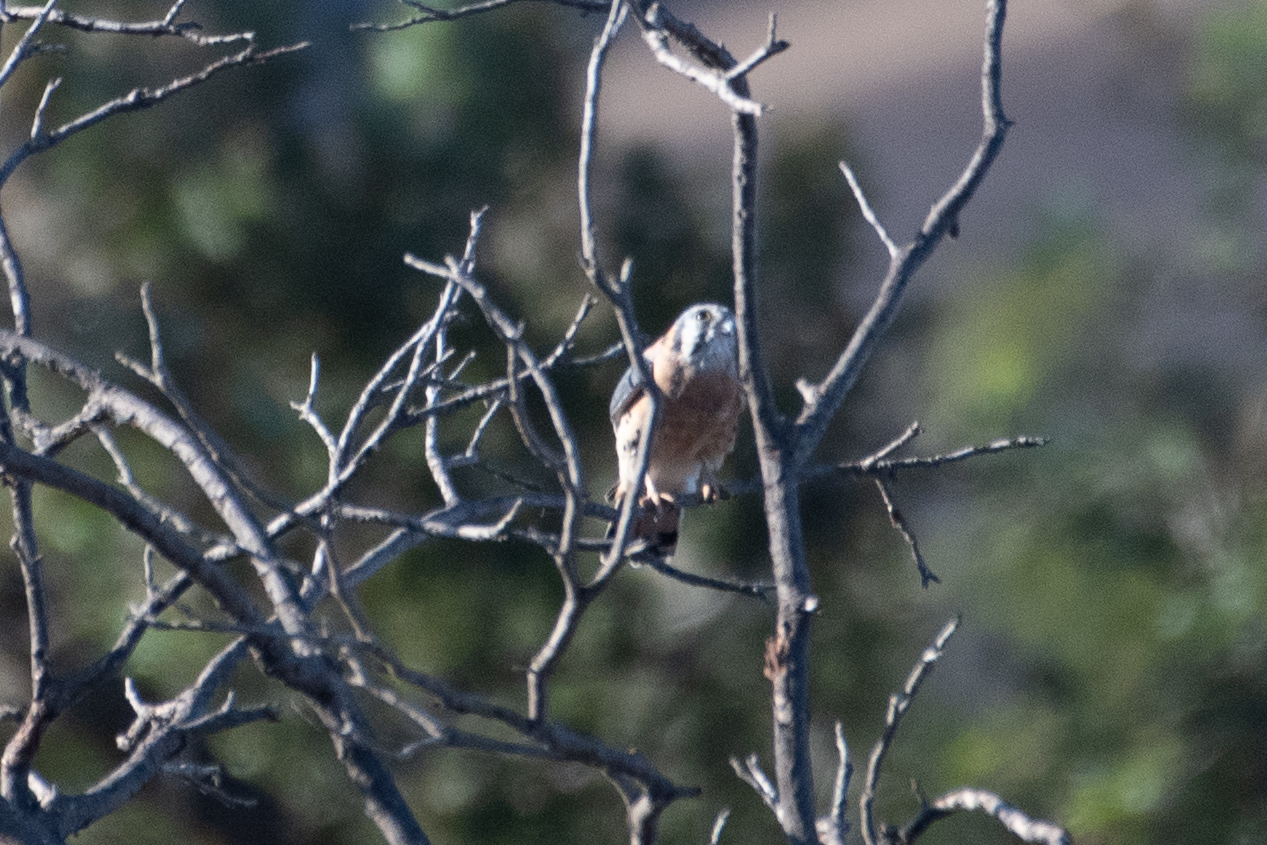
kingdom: Animalia
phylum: Chordata
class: Aves
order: Falconiformes
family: Falconidae
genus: Falco
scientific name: Falco sparverius
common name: American kestrel
